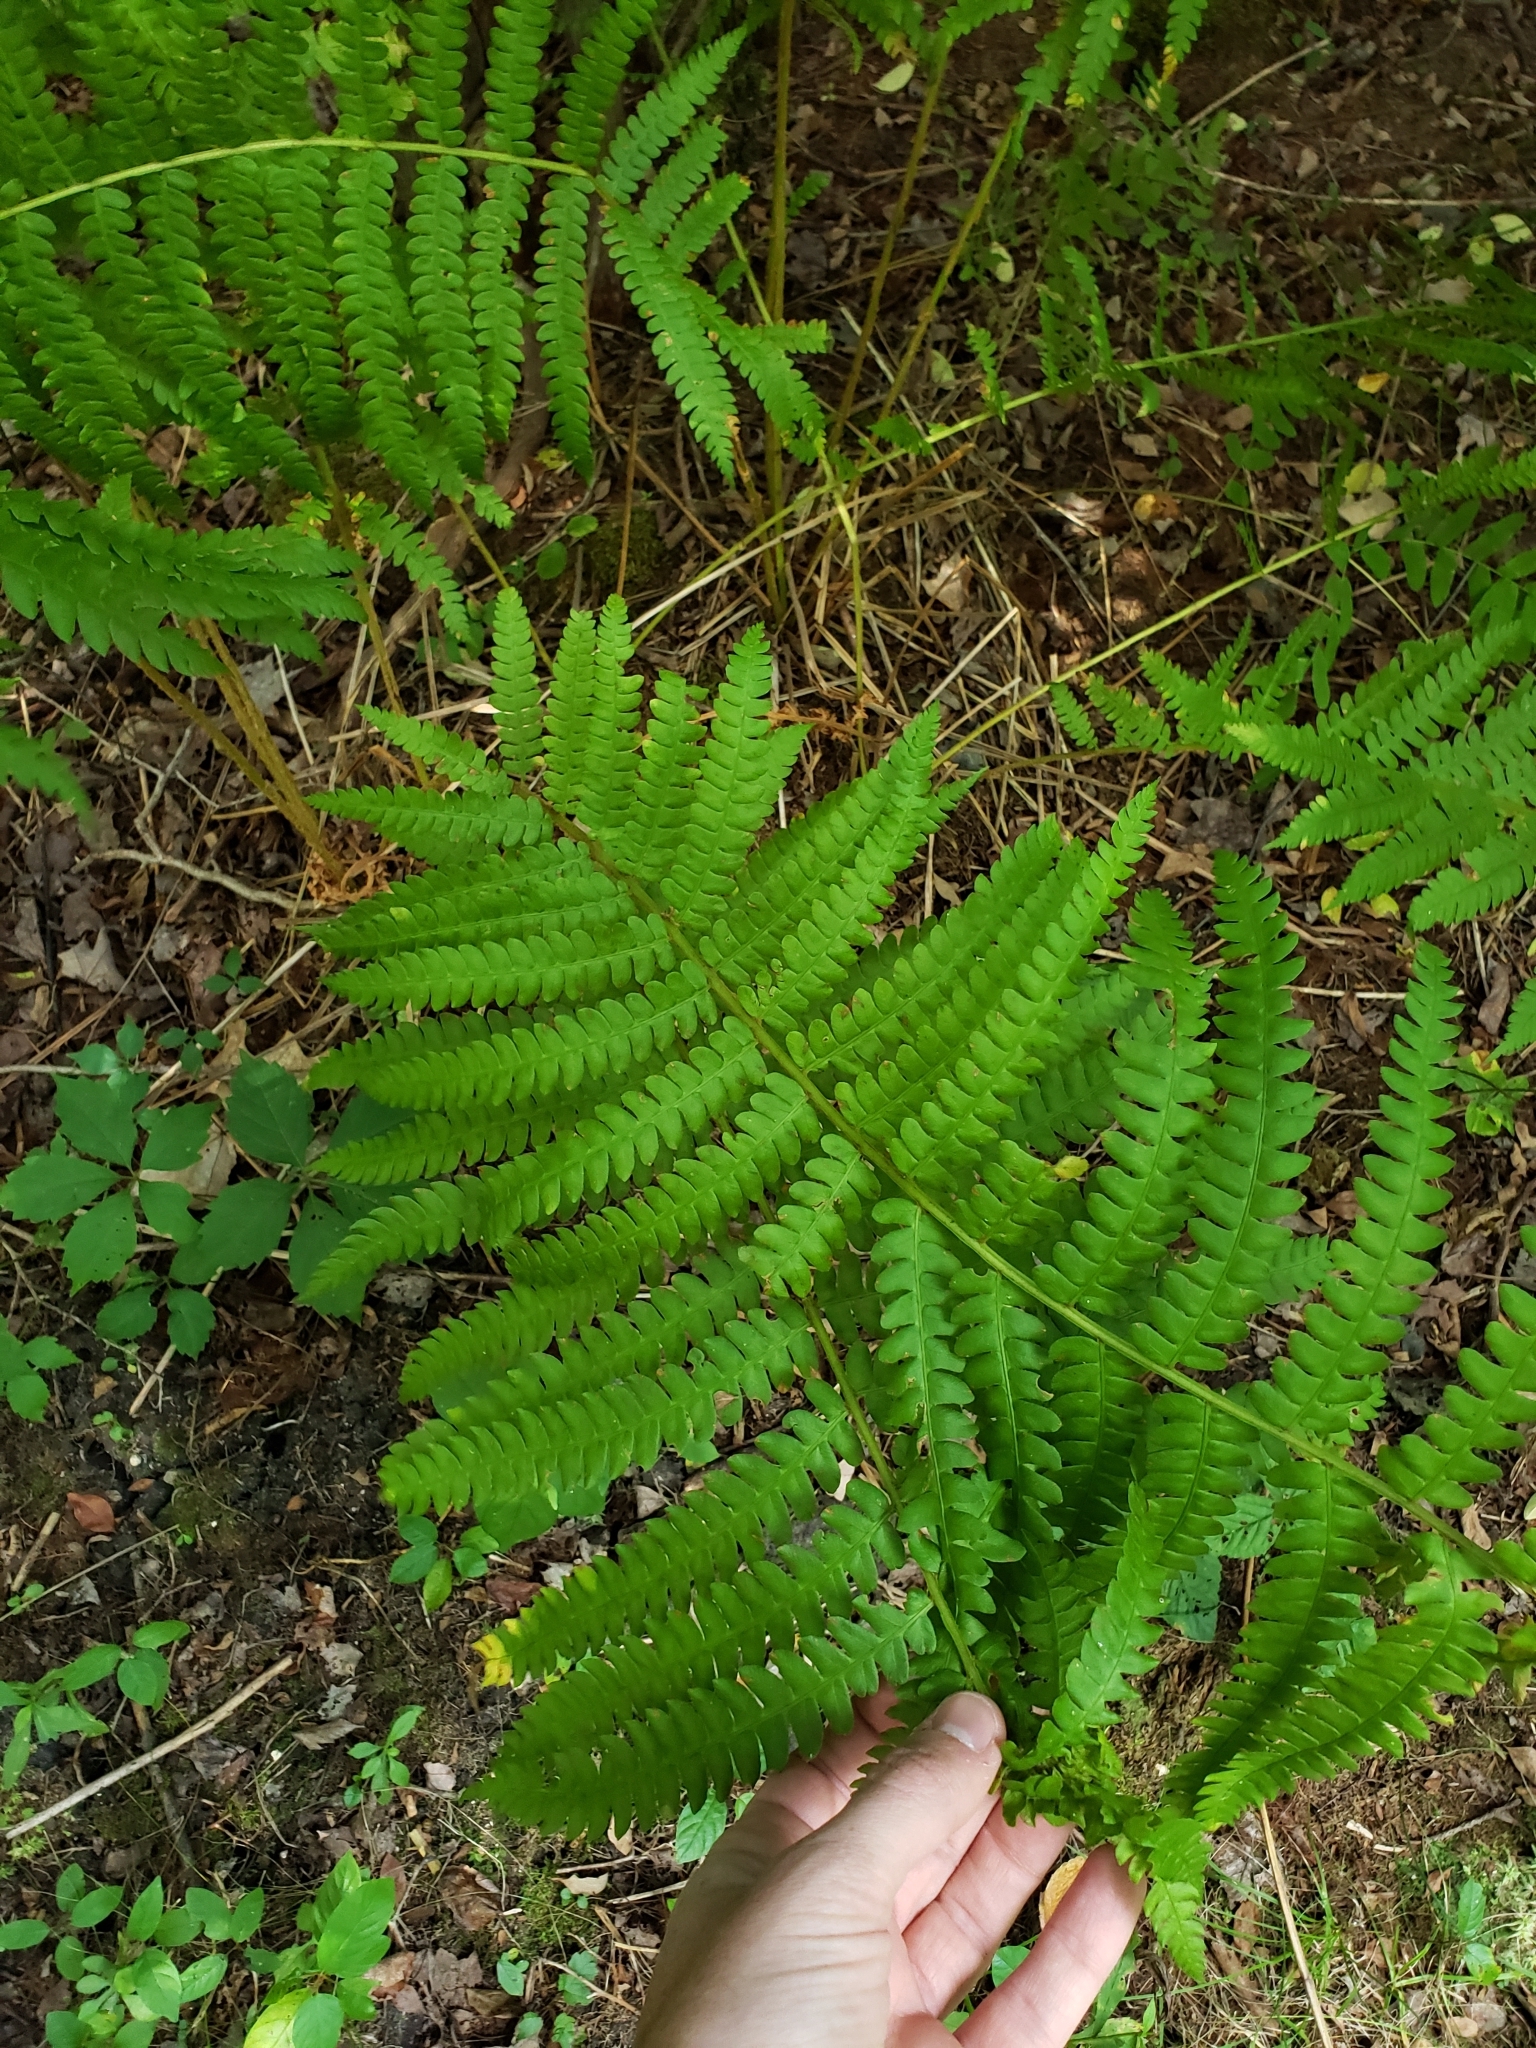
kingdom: Plantae
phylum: Tracheophyta
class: Polypodiopsida
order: Osmundales
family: Osmundaceae
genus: Osmundastrum
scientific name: Osmundastrum cinnamomeum
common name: Cinnamon fern
